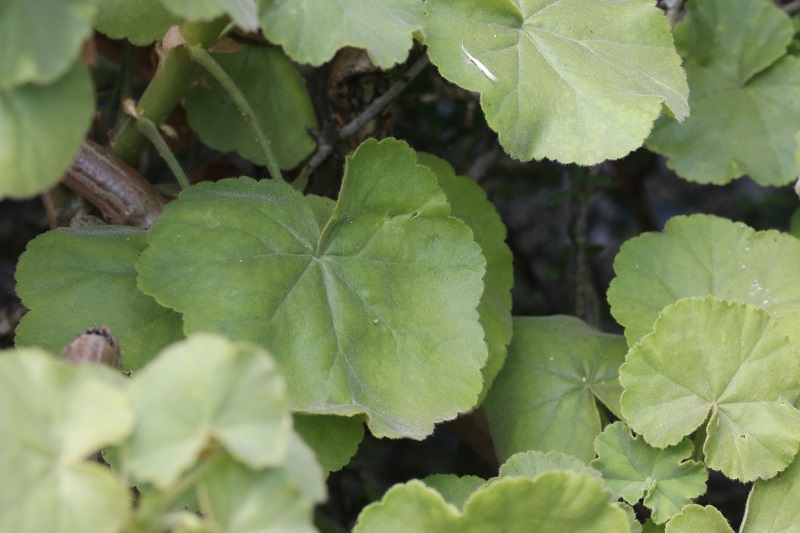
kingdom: Plantae
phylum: Tracheophyta
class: Magnoliopsida
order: Geraniales
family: Geraniaceae
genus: Pelargonium
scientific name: Pelargonium inquinans
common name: Scarlet geranium
